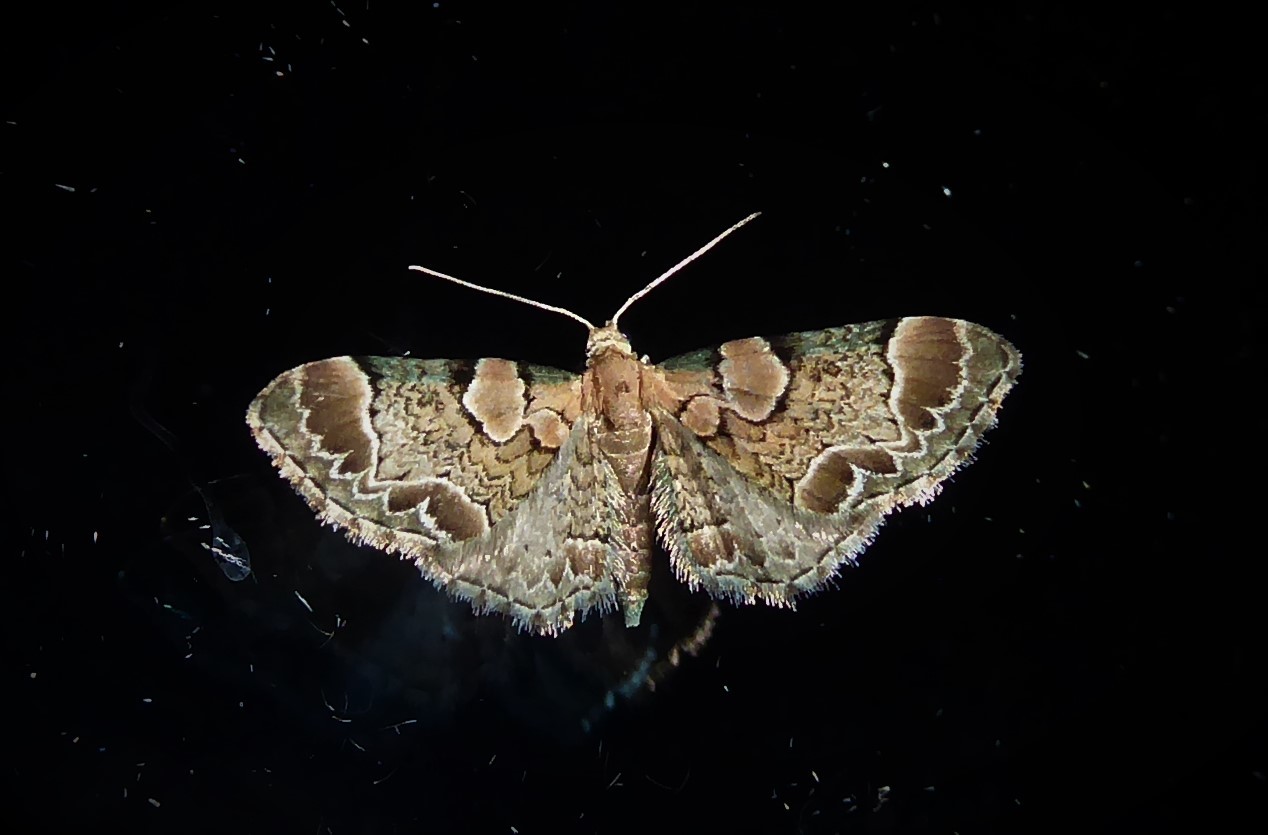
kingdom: Animalia
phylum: Arthropoda
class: Insecta
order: Lepidoptera
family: Geometridae
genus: Chloroclystis
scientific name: Chloroclystis
